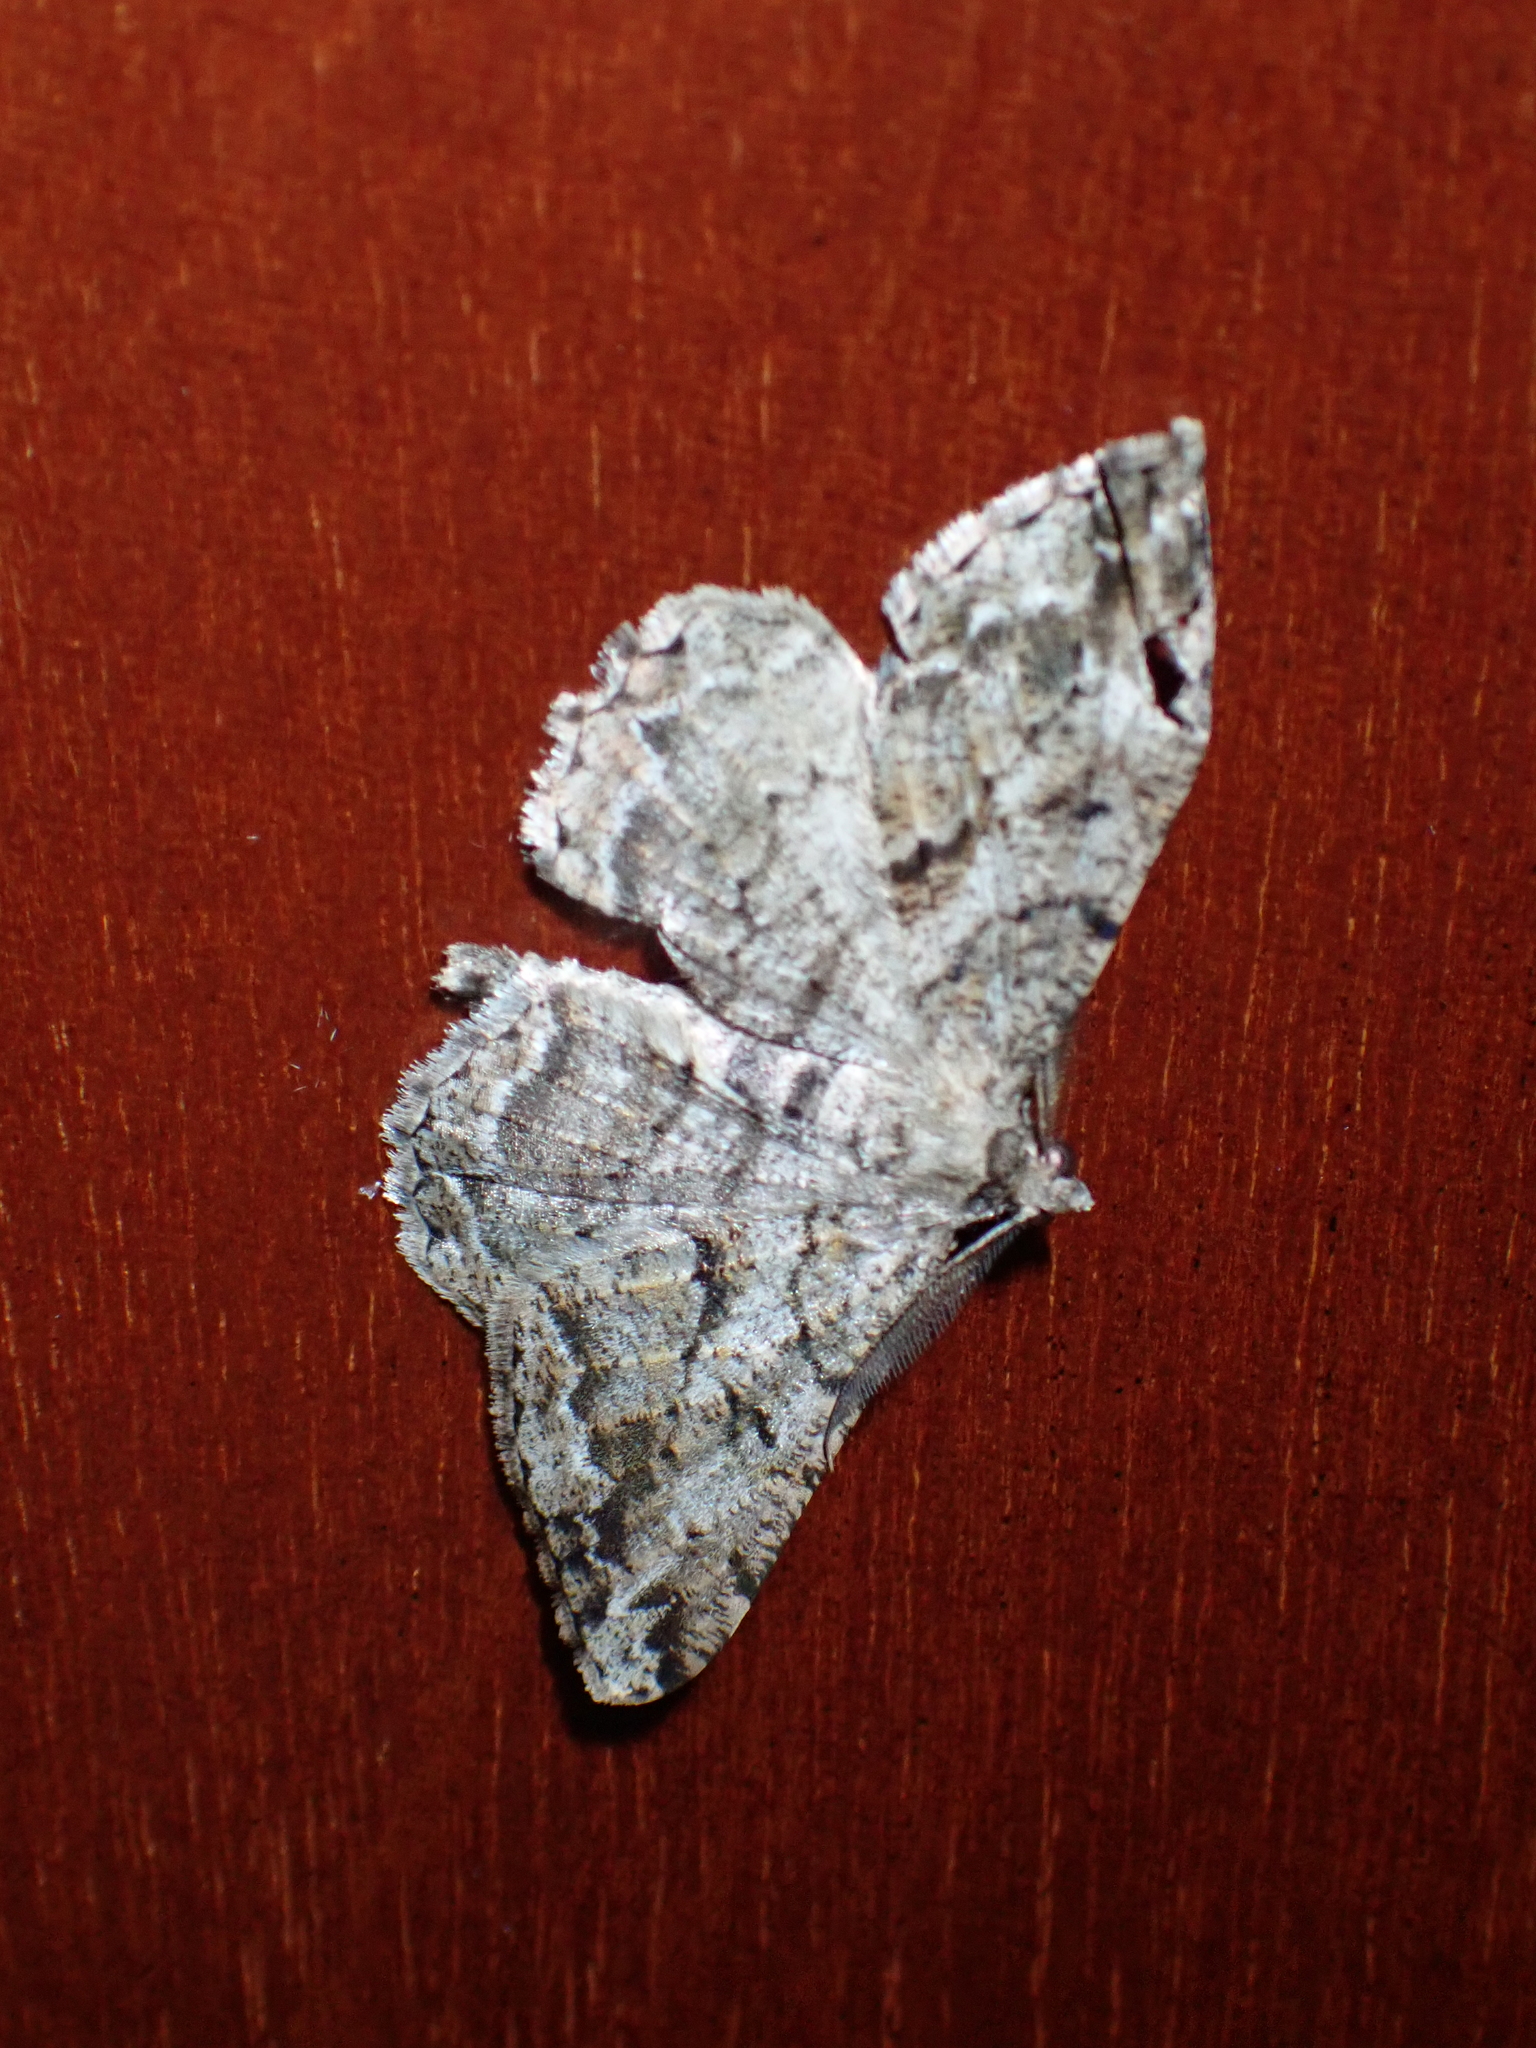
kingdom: Animalia
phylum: Arthropoda
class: Insecta
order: Lepidoptera
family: Geometridae
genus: Peribatodes
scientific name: Peribatodes rhomboidaria
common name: Willow beauty
